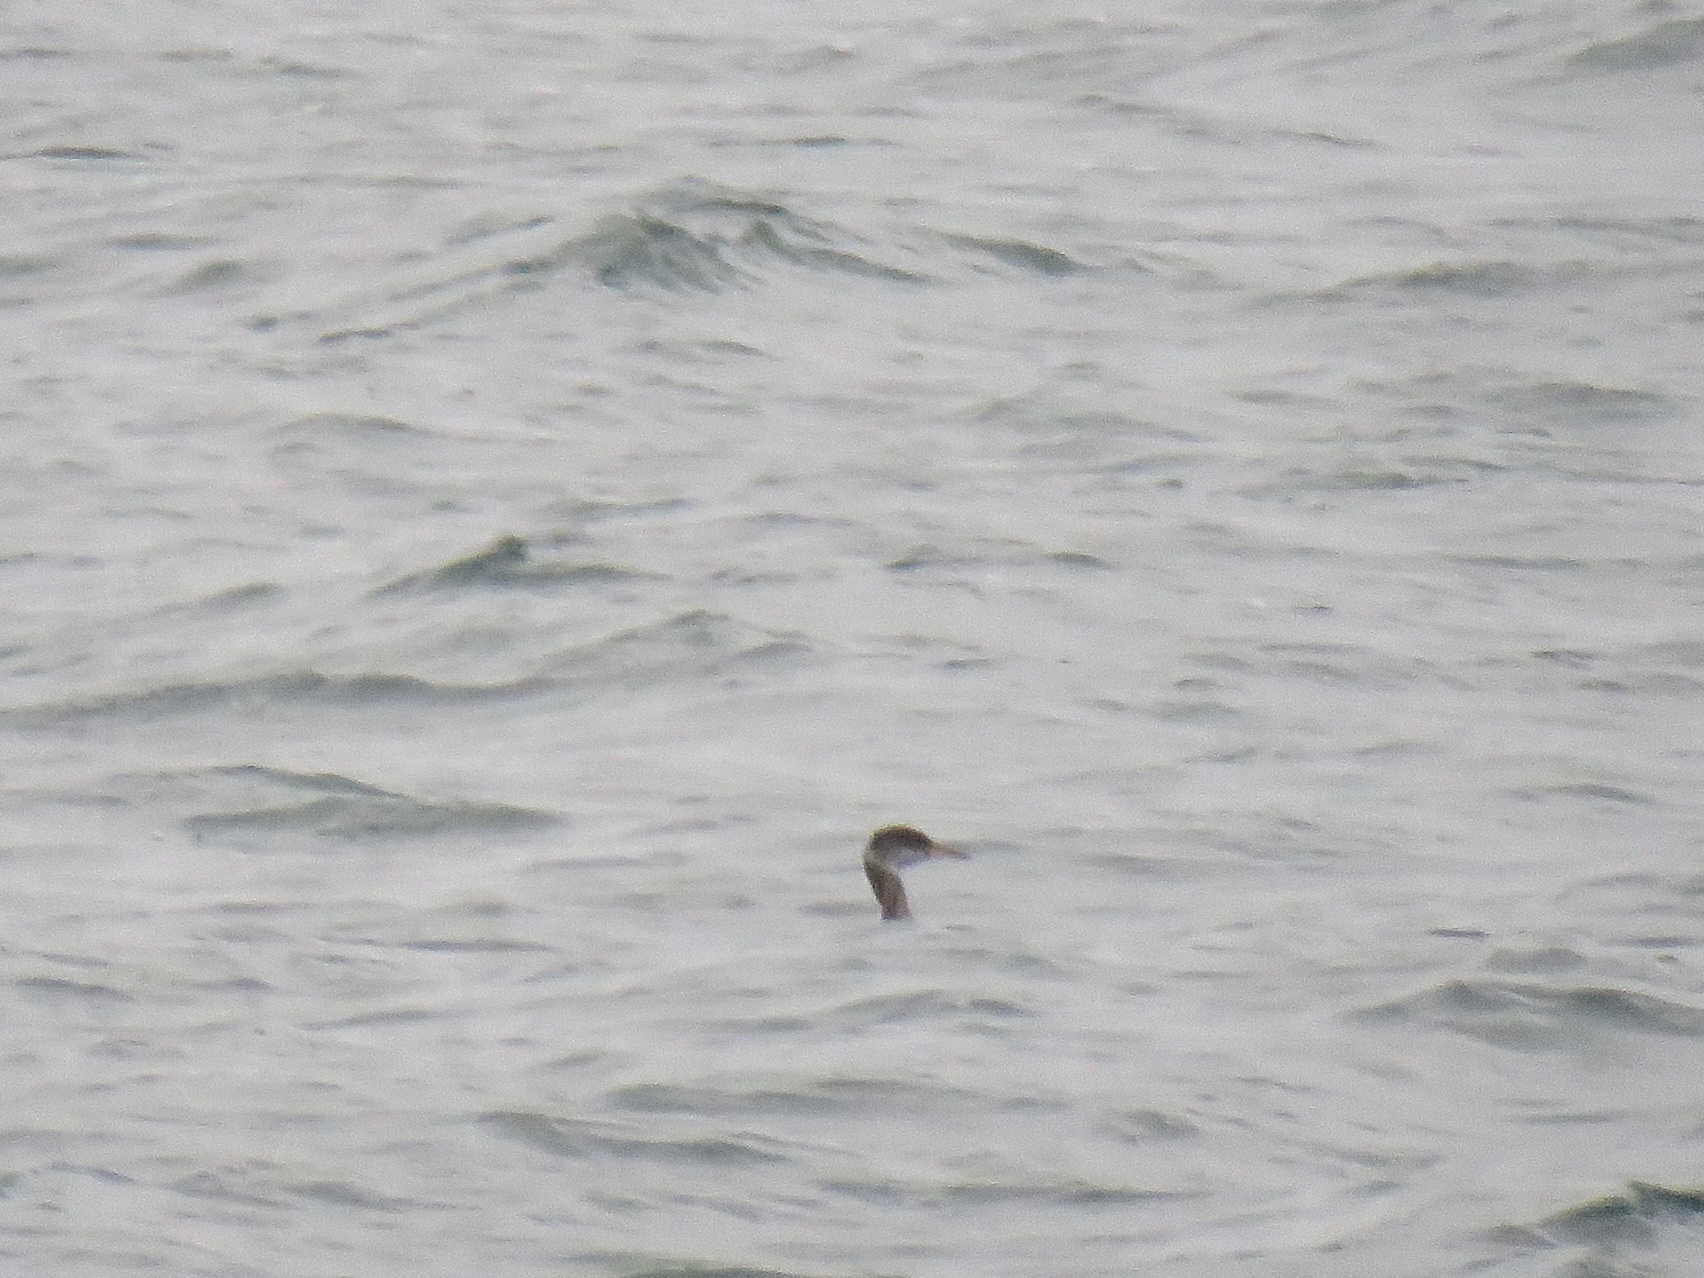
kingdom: Animalia
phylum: Chordata
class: Aves
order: Podicipediformes
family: Podicipedidae
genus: Podiceps
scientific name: Podiceps grisegena
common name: Red-necked grebe
